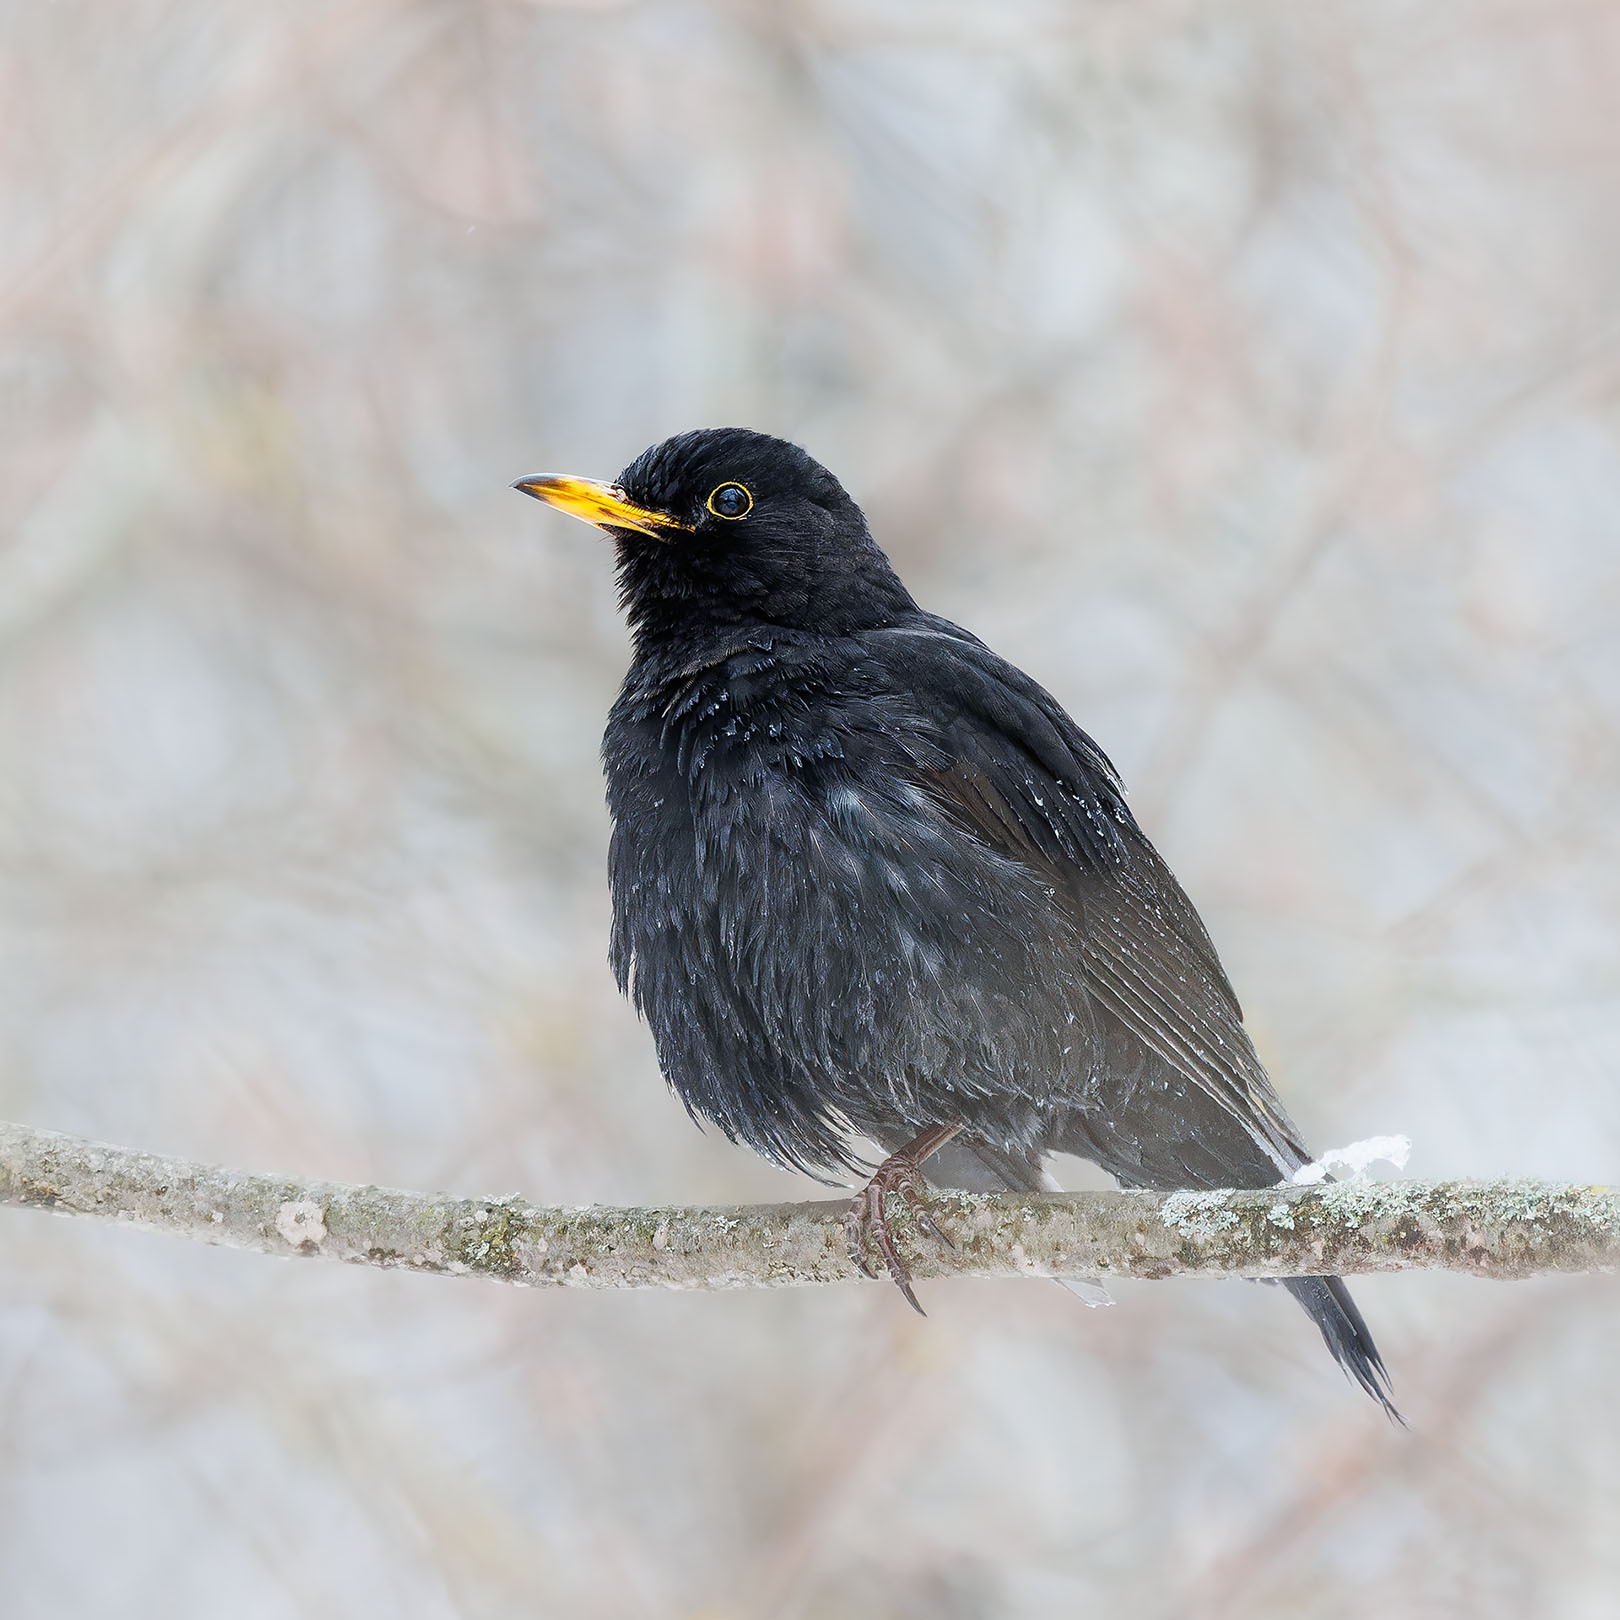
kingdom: Animalia
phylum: Chordata
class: Aves
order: Passeriformes
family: Turdidae
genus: Turdus
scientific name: Turdus merula
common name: Common blackbird
